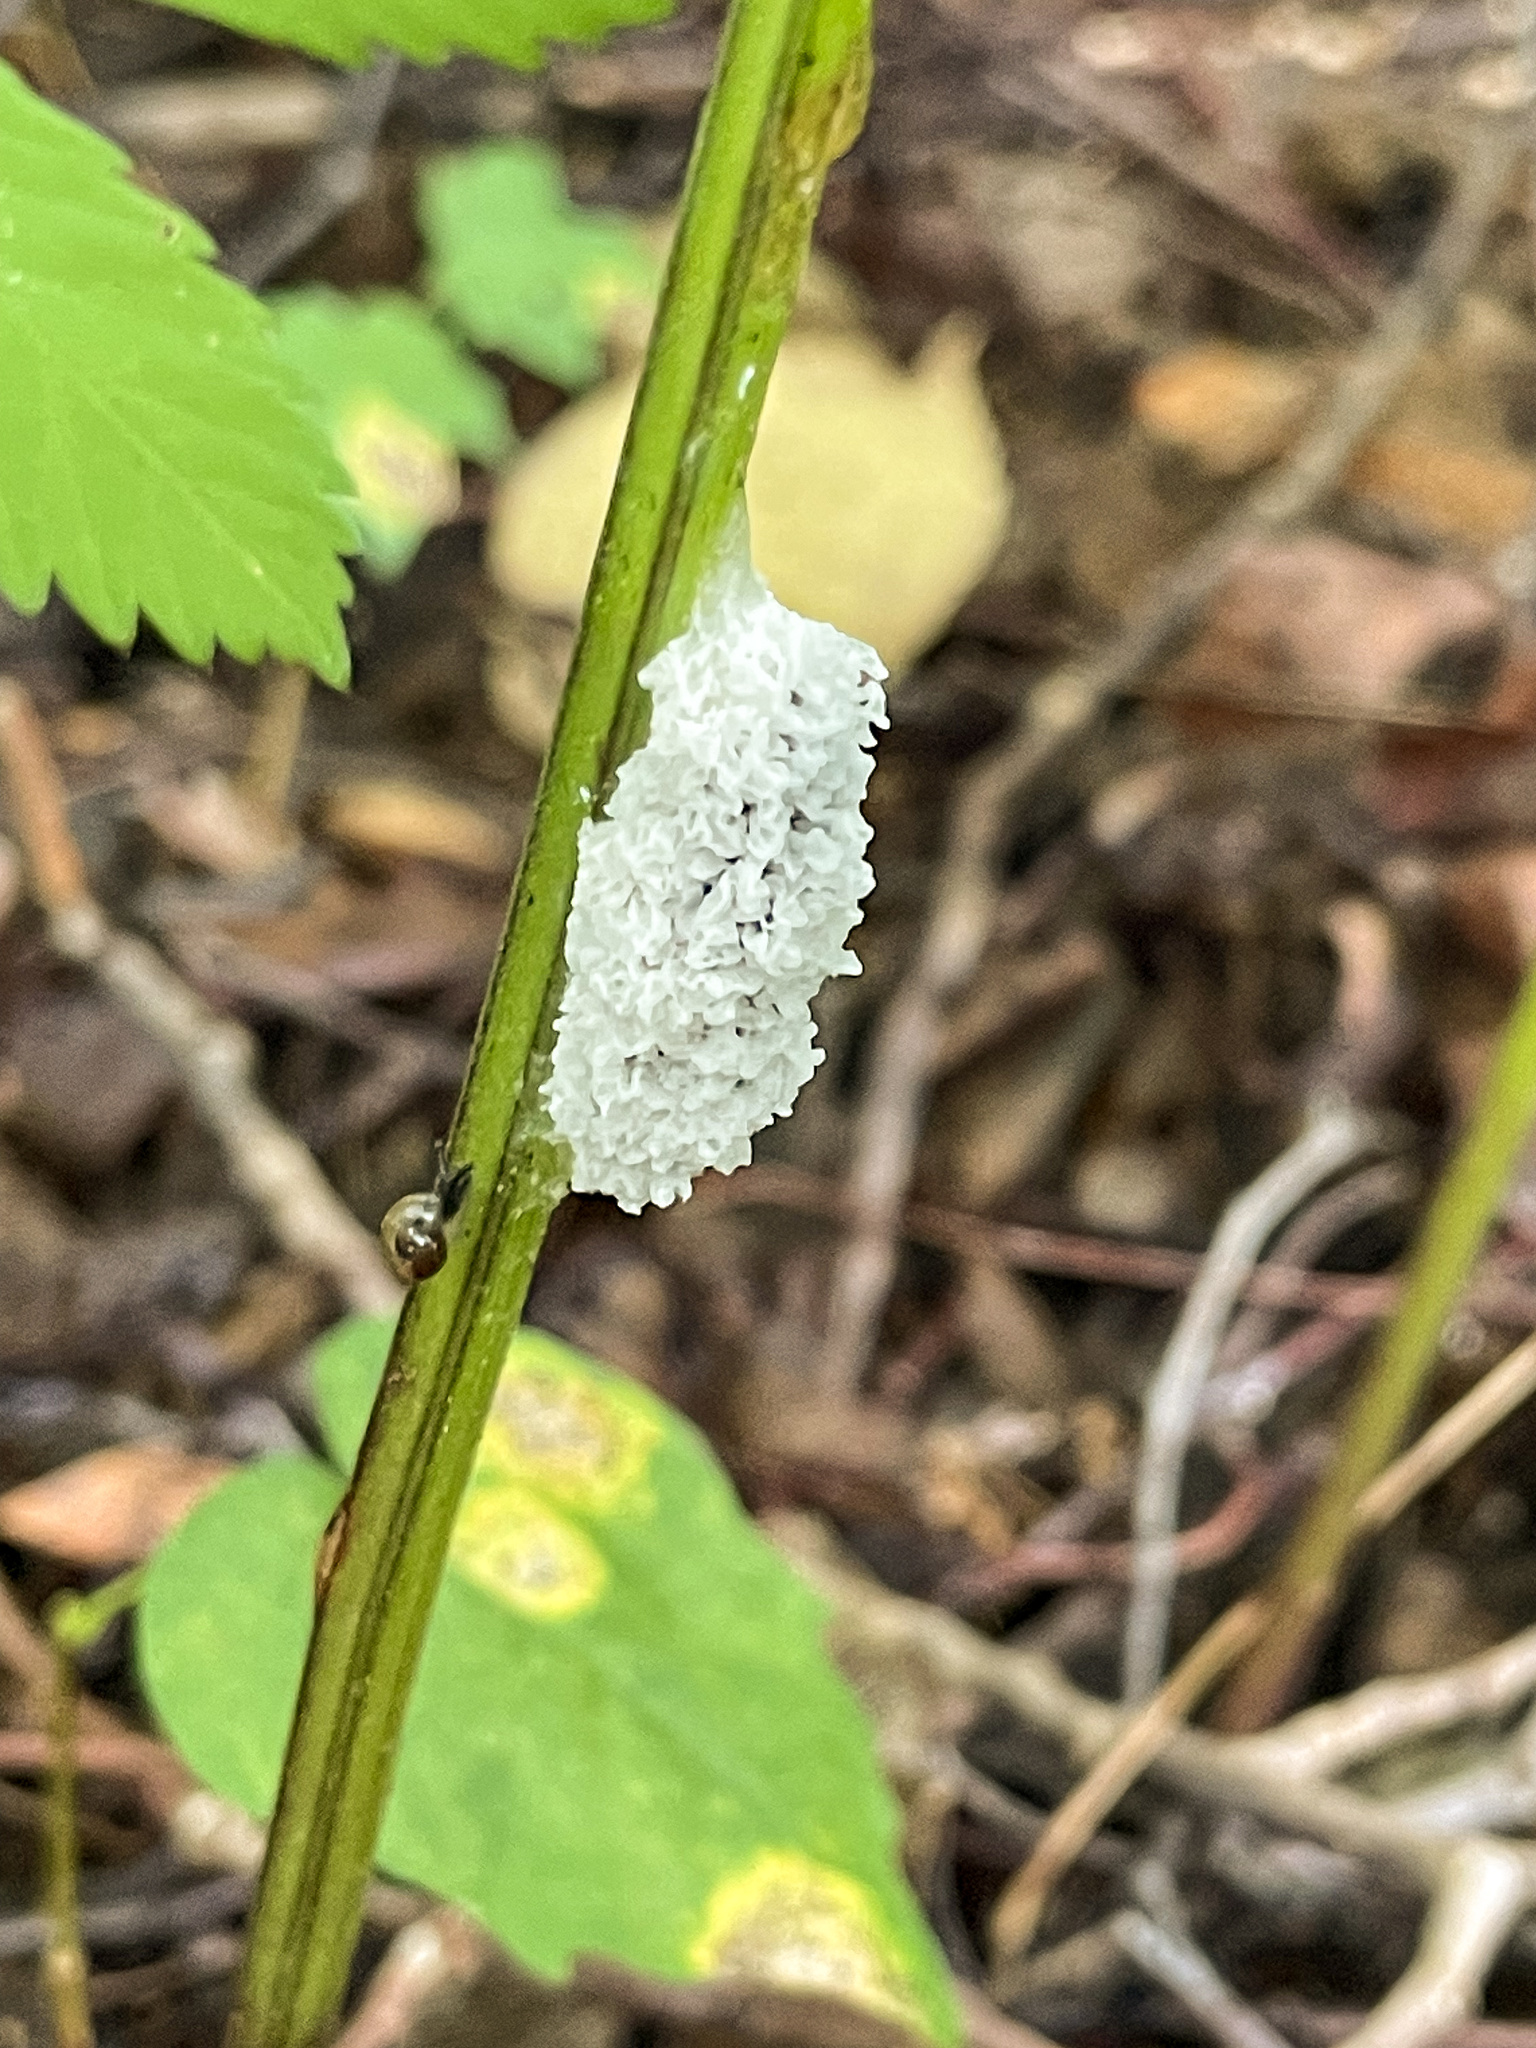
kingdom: Protozoa
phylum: Mycetozoa
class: Myxomycetes
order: Physarales
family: Physaraceae
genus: Didymium
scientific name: Didymium
